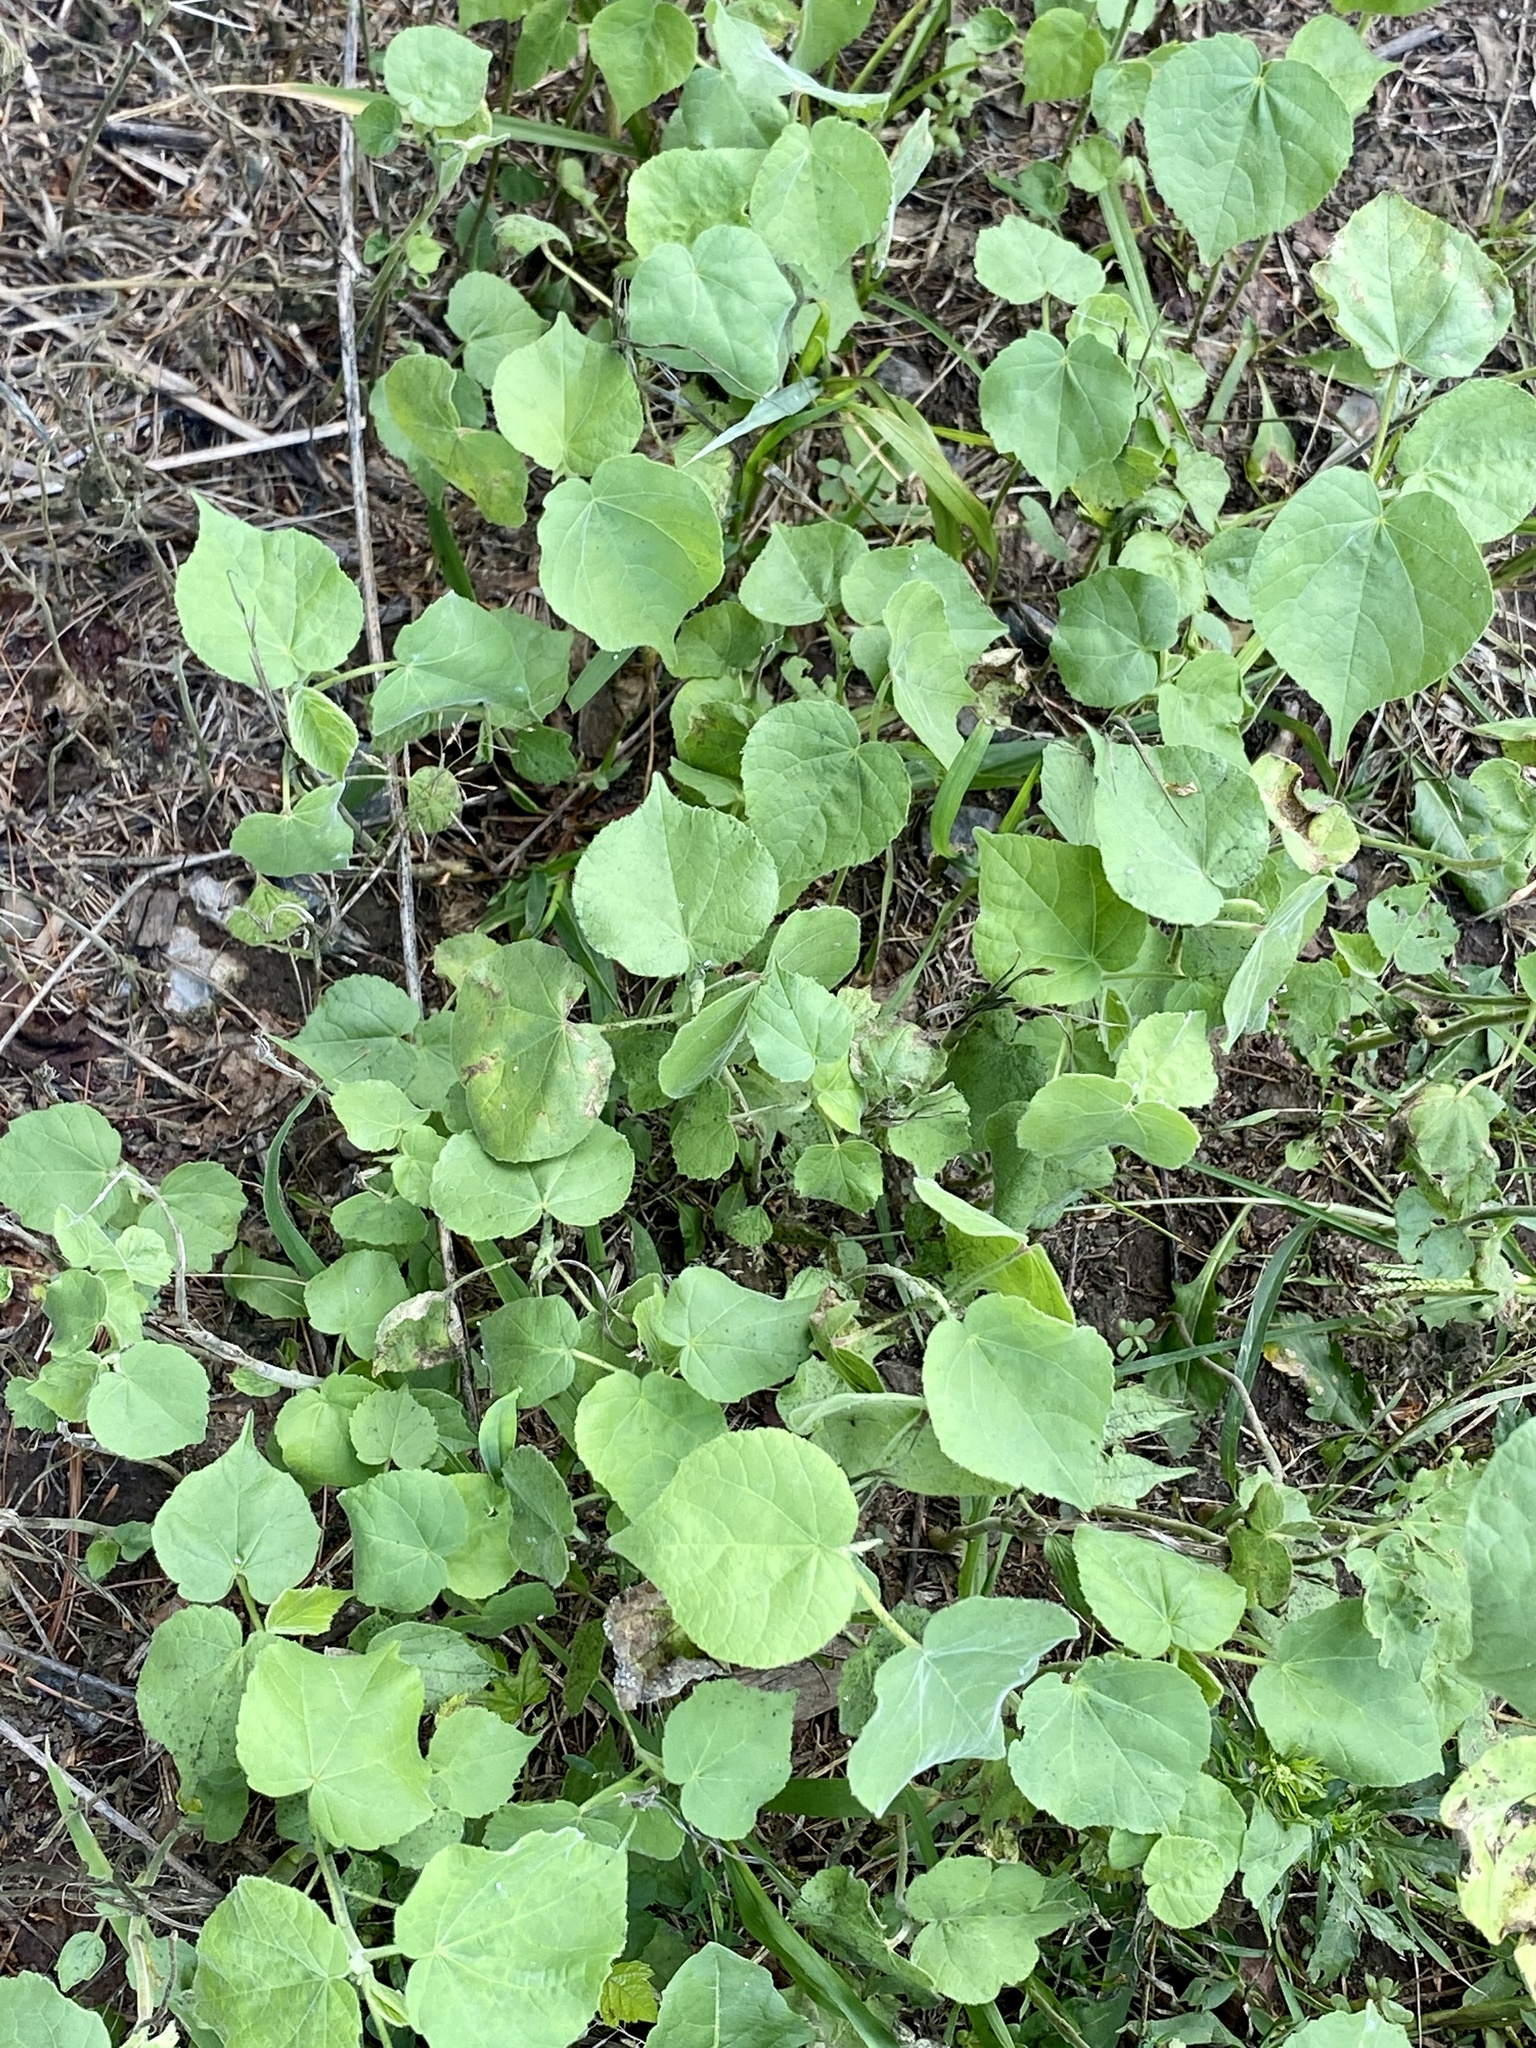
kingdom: Plantae
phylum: Tracheophyta
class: Magnoliopsida
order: Malvales
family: Malvaceae
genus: Abutilon
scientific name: Abutilon theophrasti
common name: Velvetleaf
